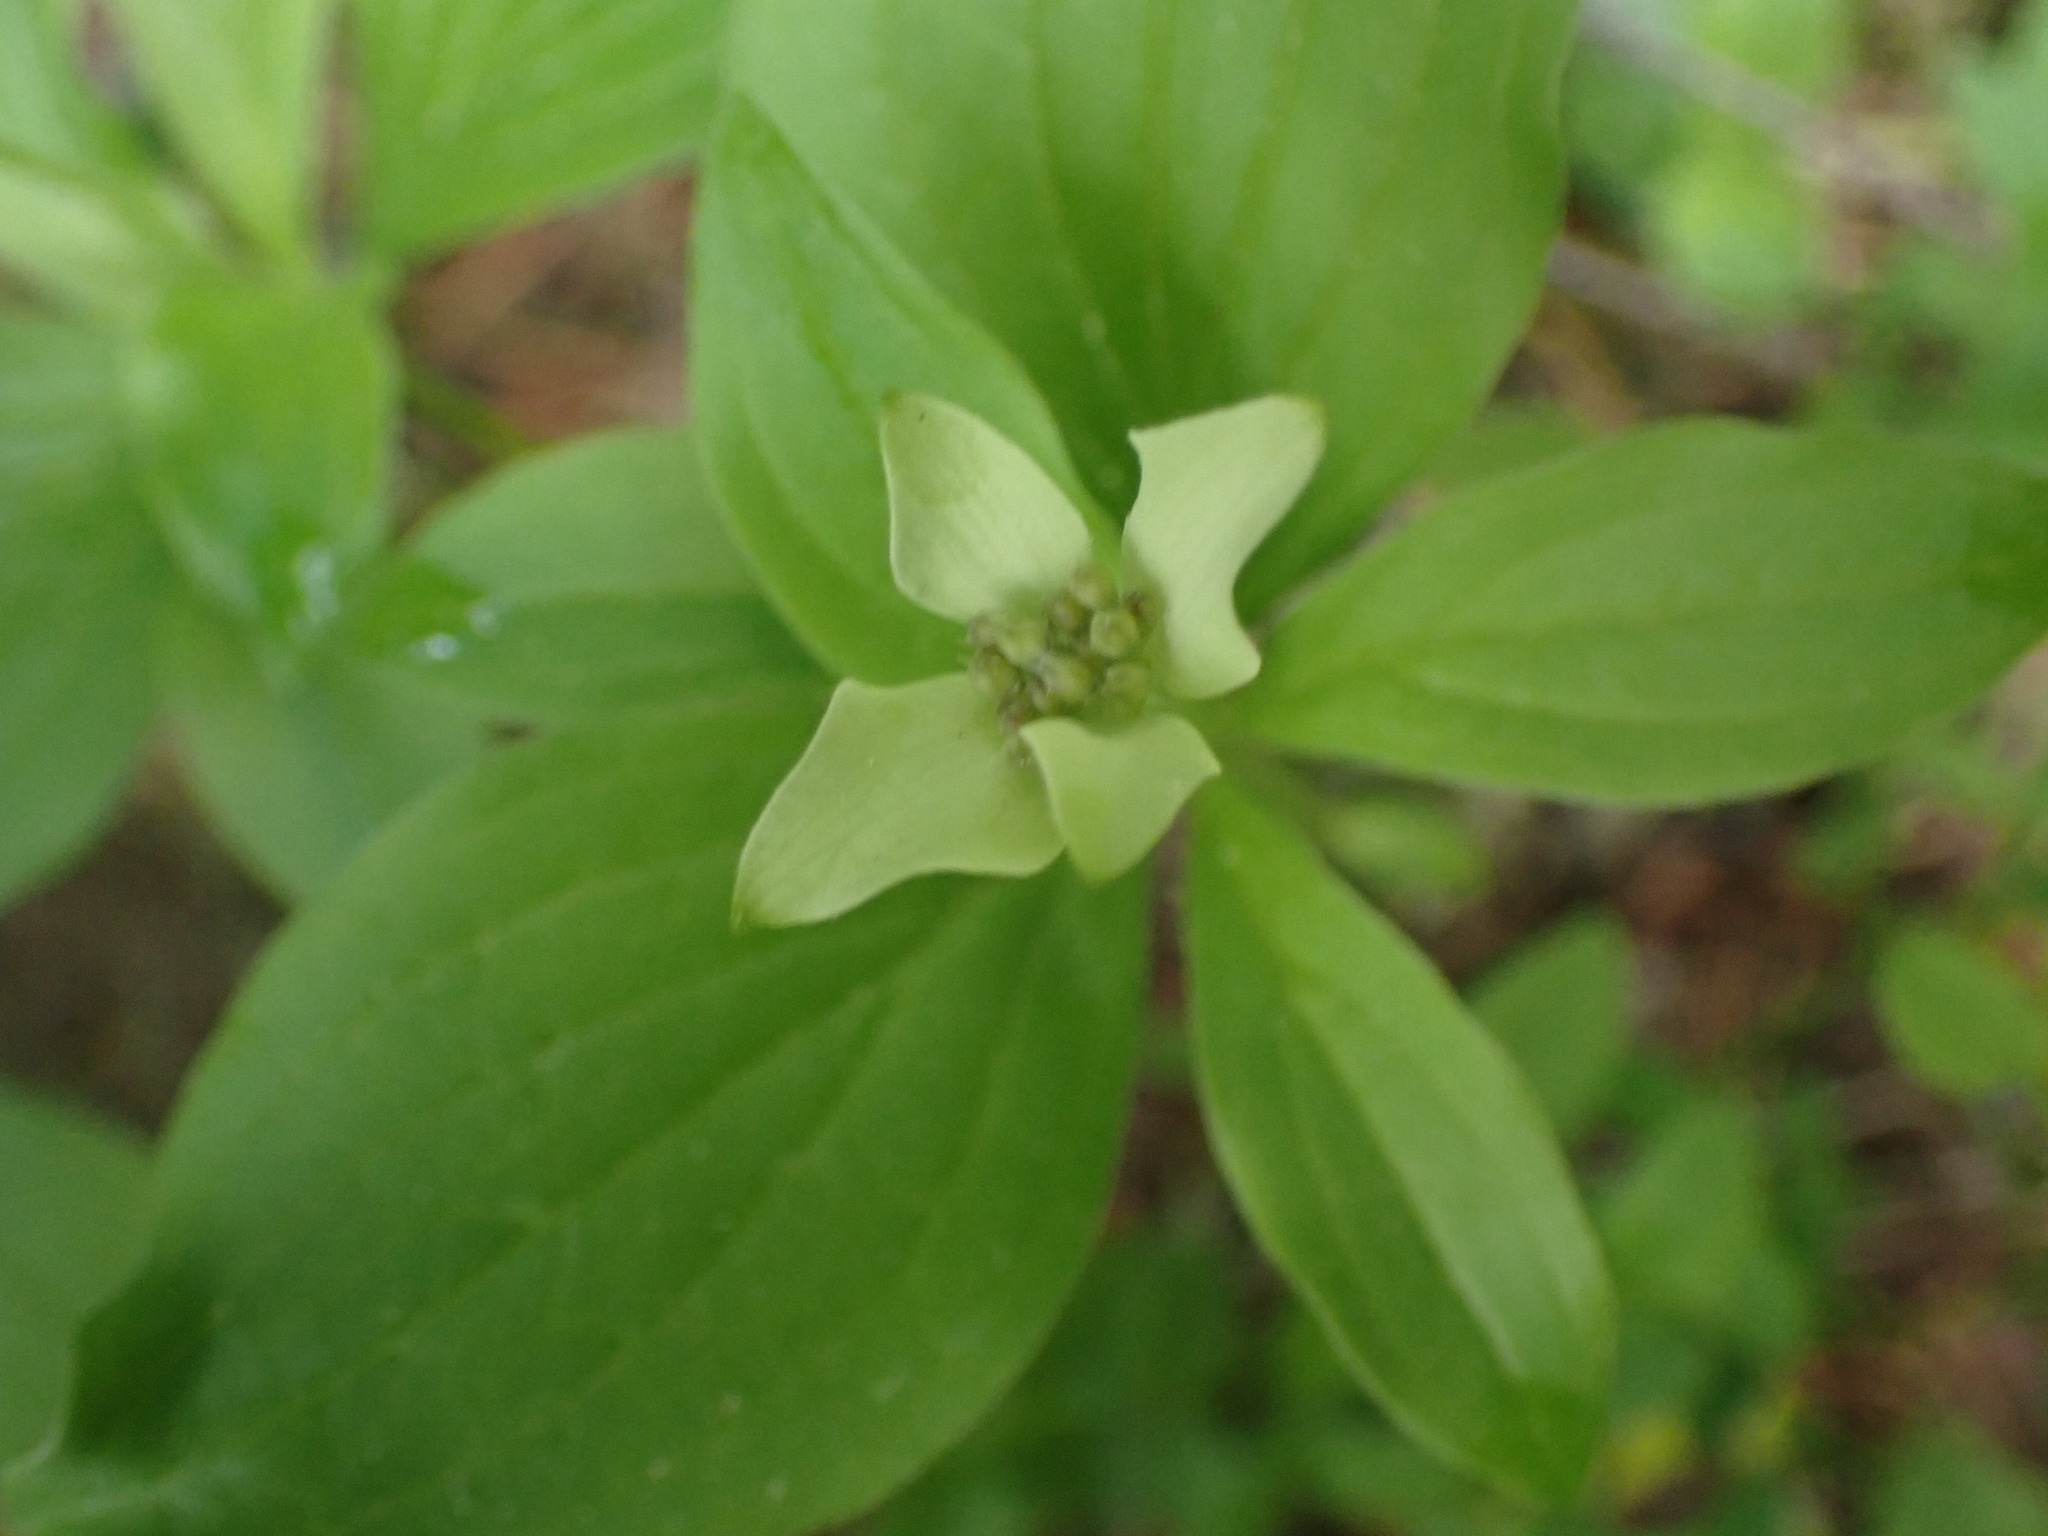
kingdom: Plantae
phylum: Tracheophyta
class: Magnoliopsida
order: Cornales
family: Cornaceae
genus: Cornus
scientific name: Cornus canadensis
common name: Creeping dogwood
